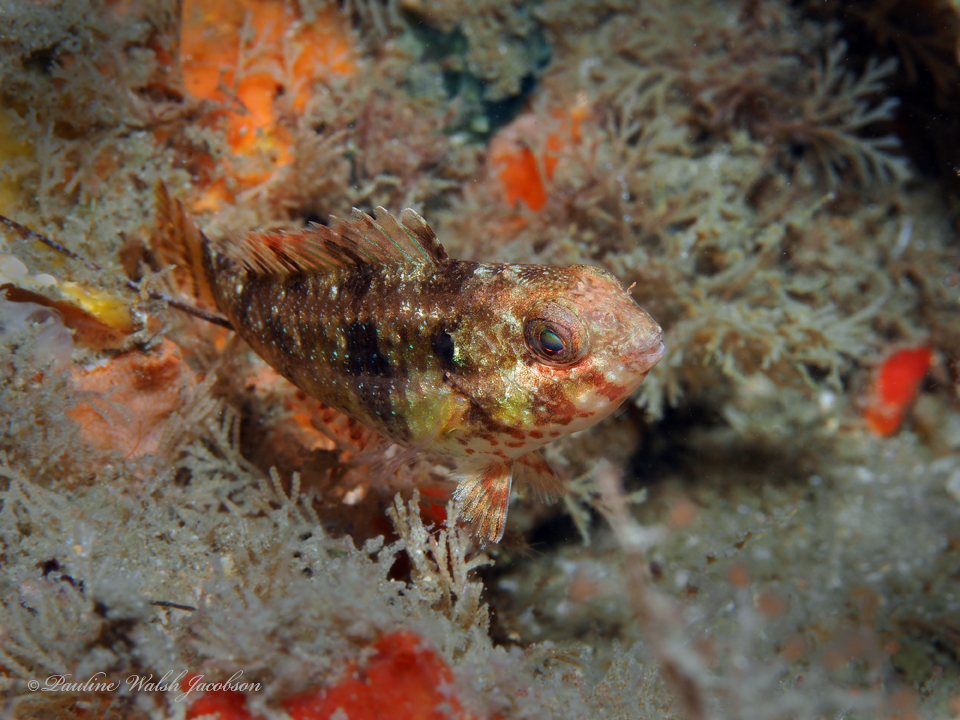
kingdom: Animalia
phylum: Chordata
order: Perciformes
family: Scaridae
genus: Sparisoma
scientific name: Sparisoma aurofrenatum
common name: Redband parrotfish
